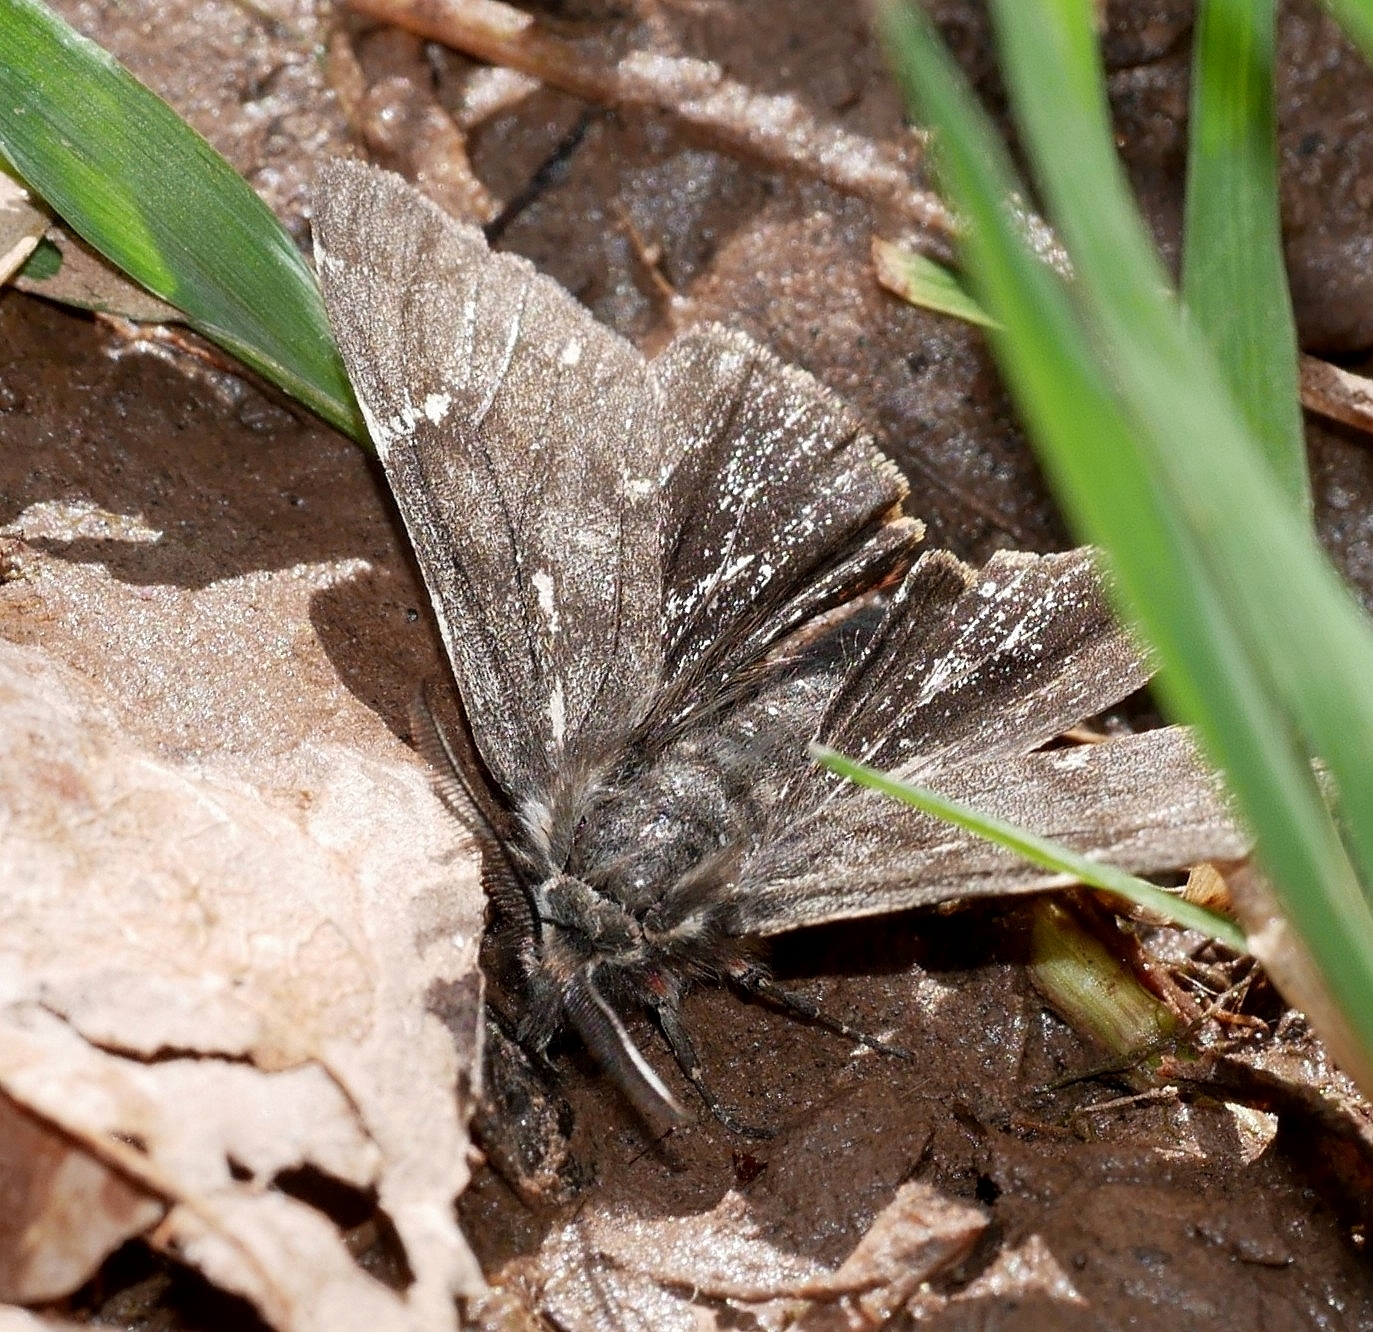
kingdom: Animalia
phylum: Arthropoda
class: Insecta
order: Lepidoptera
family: Erebidae
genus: Leptarctia
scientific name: Leptarctia californiae
